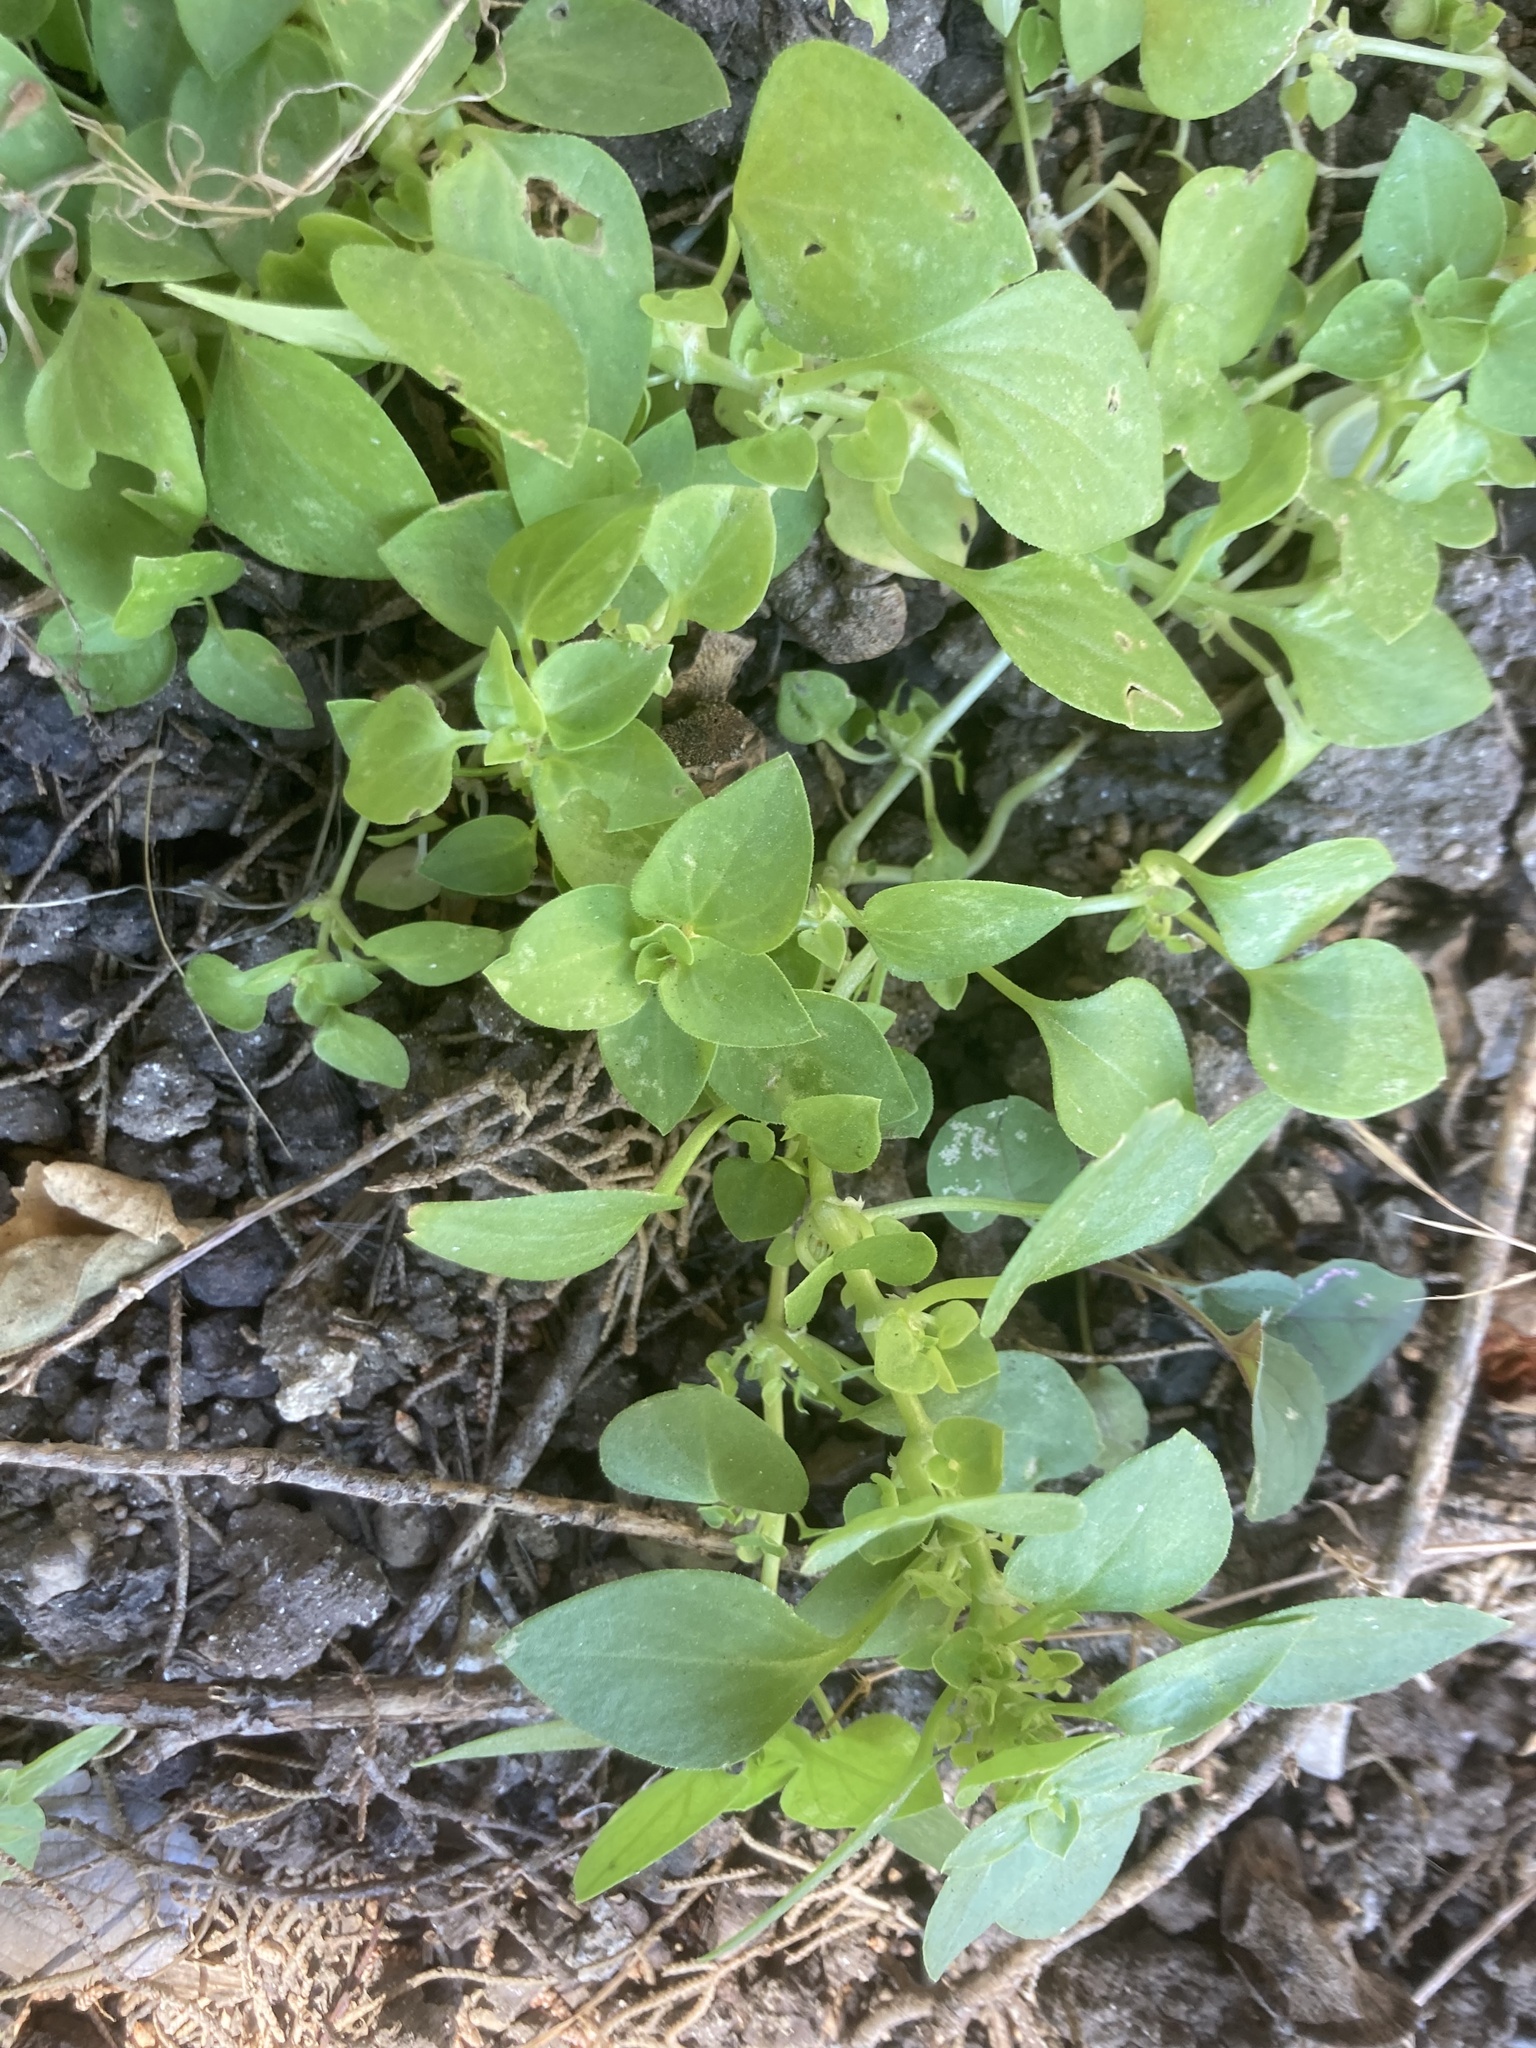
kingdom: Plantae
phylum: Tracheophyta
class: Magnoliopsida
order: Gentianales
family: Rubiaceae
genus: Theligonum
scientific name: Theligonum cynocrambe
